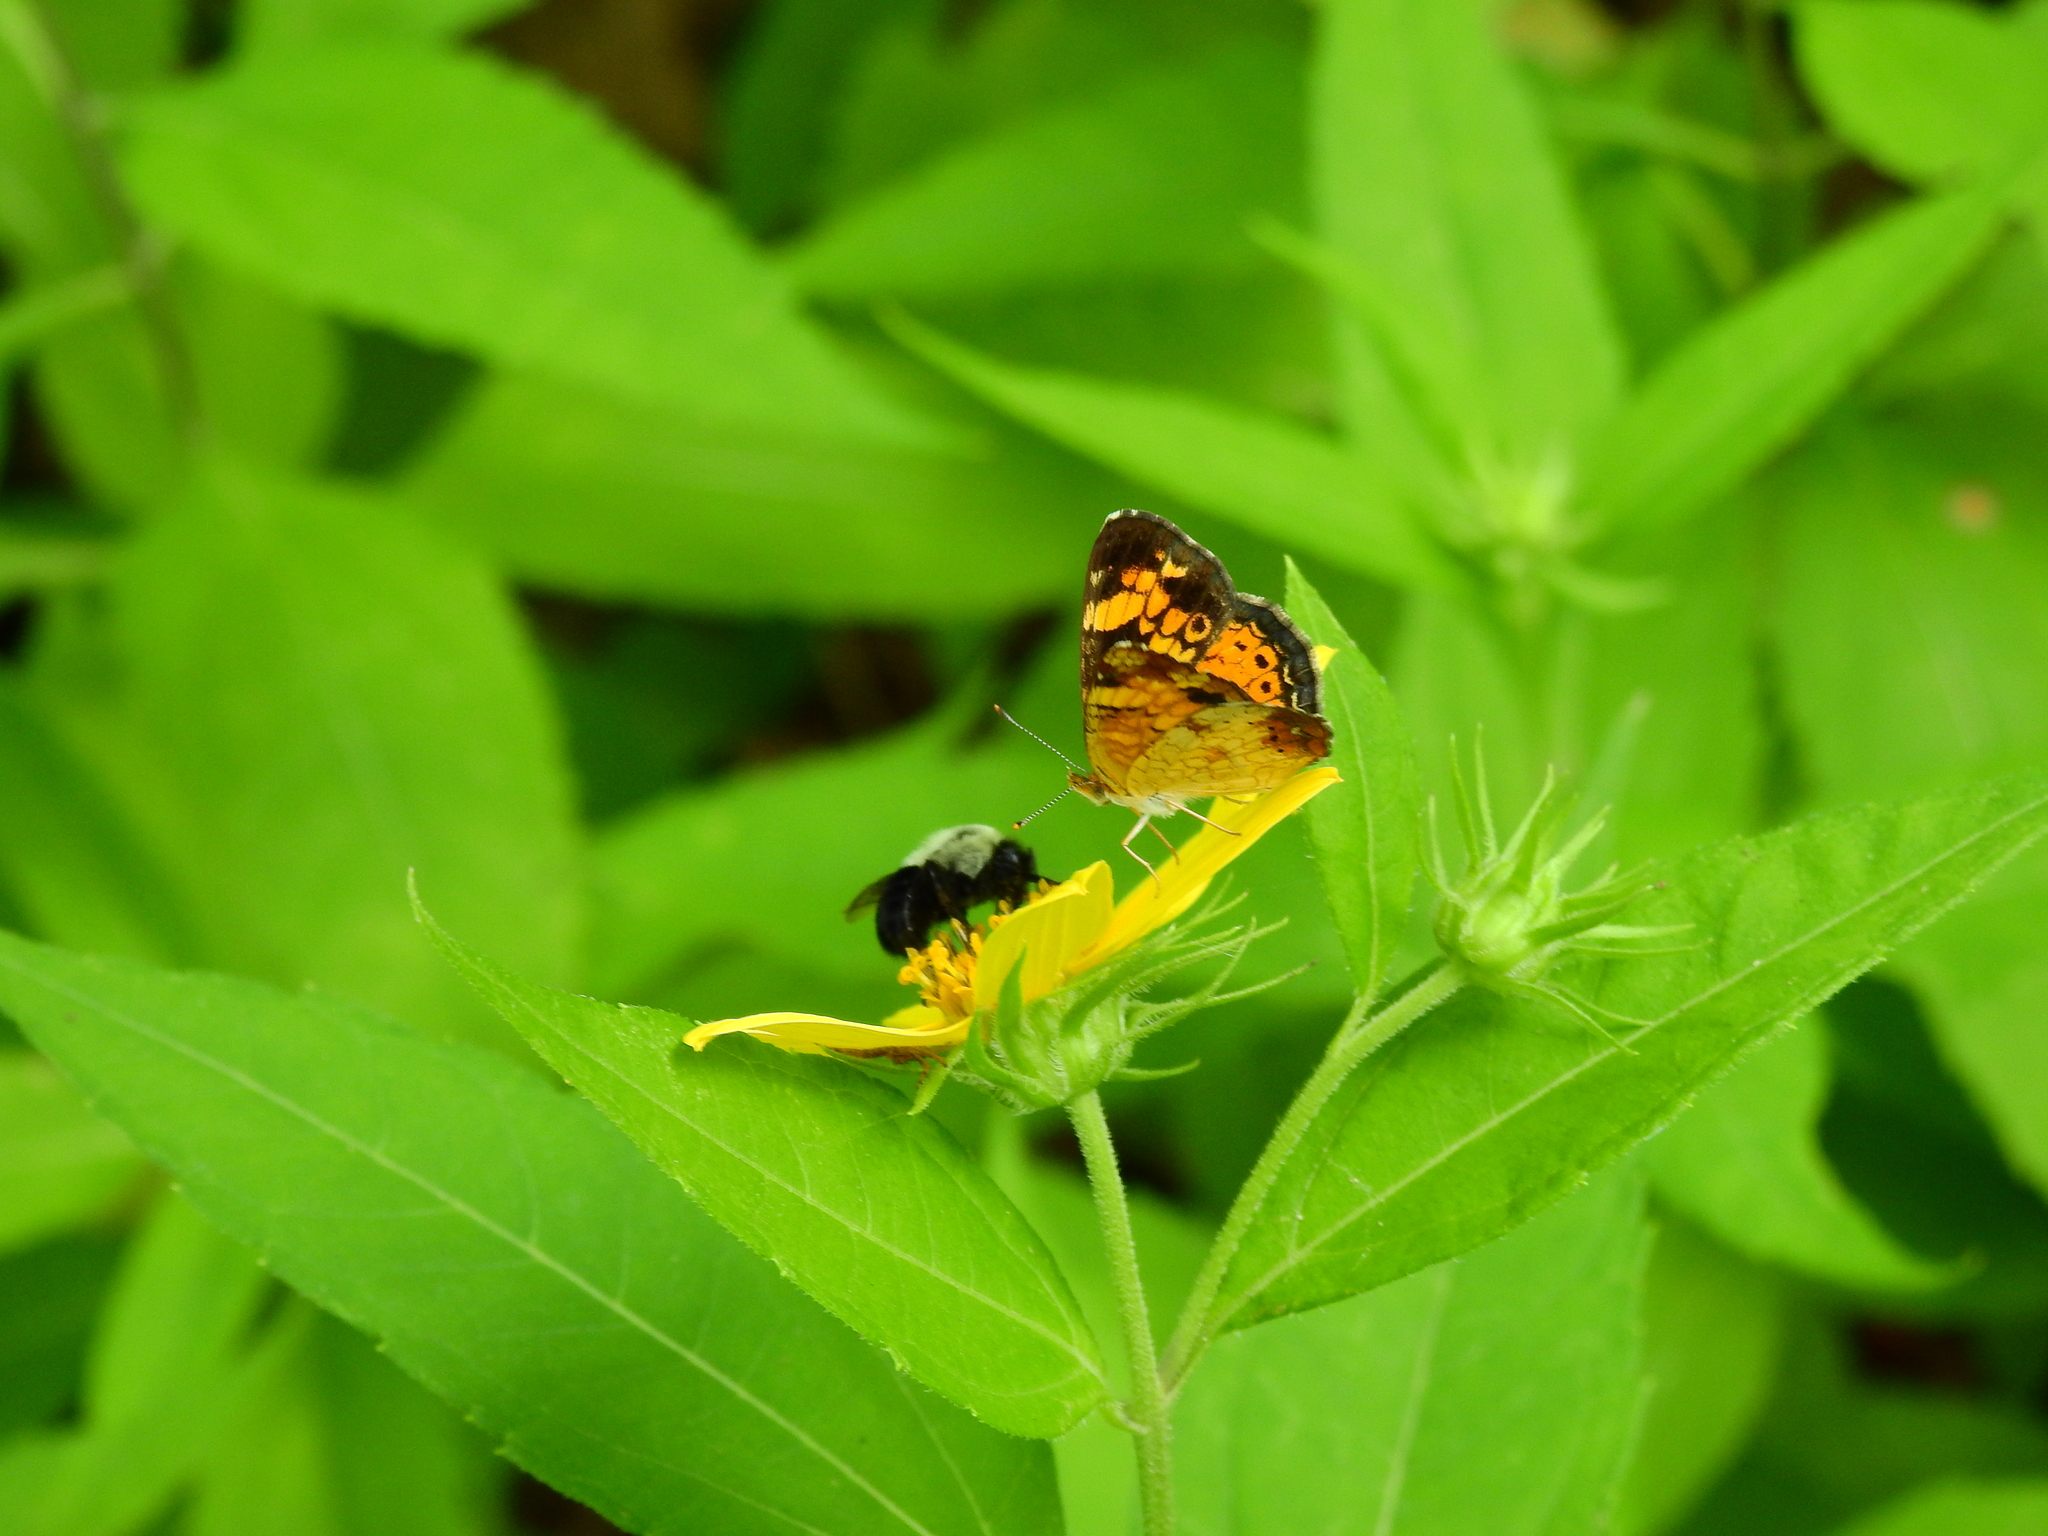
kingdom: Animalia
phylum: Arthropoda
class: Insecta
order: Lepidoptera
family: Nymphalidae
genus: Phyciodes
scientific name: Phyciodes tharos
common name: Pearl crescent
